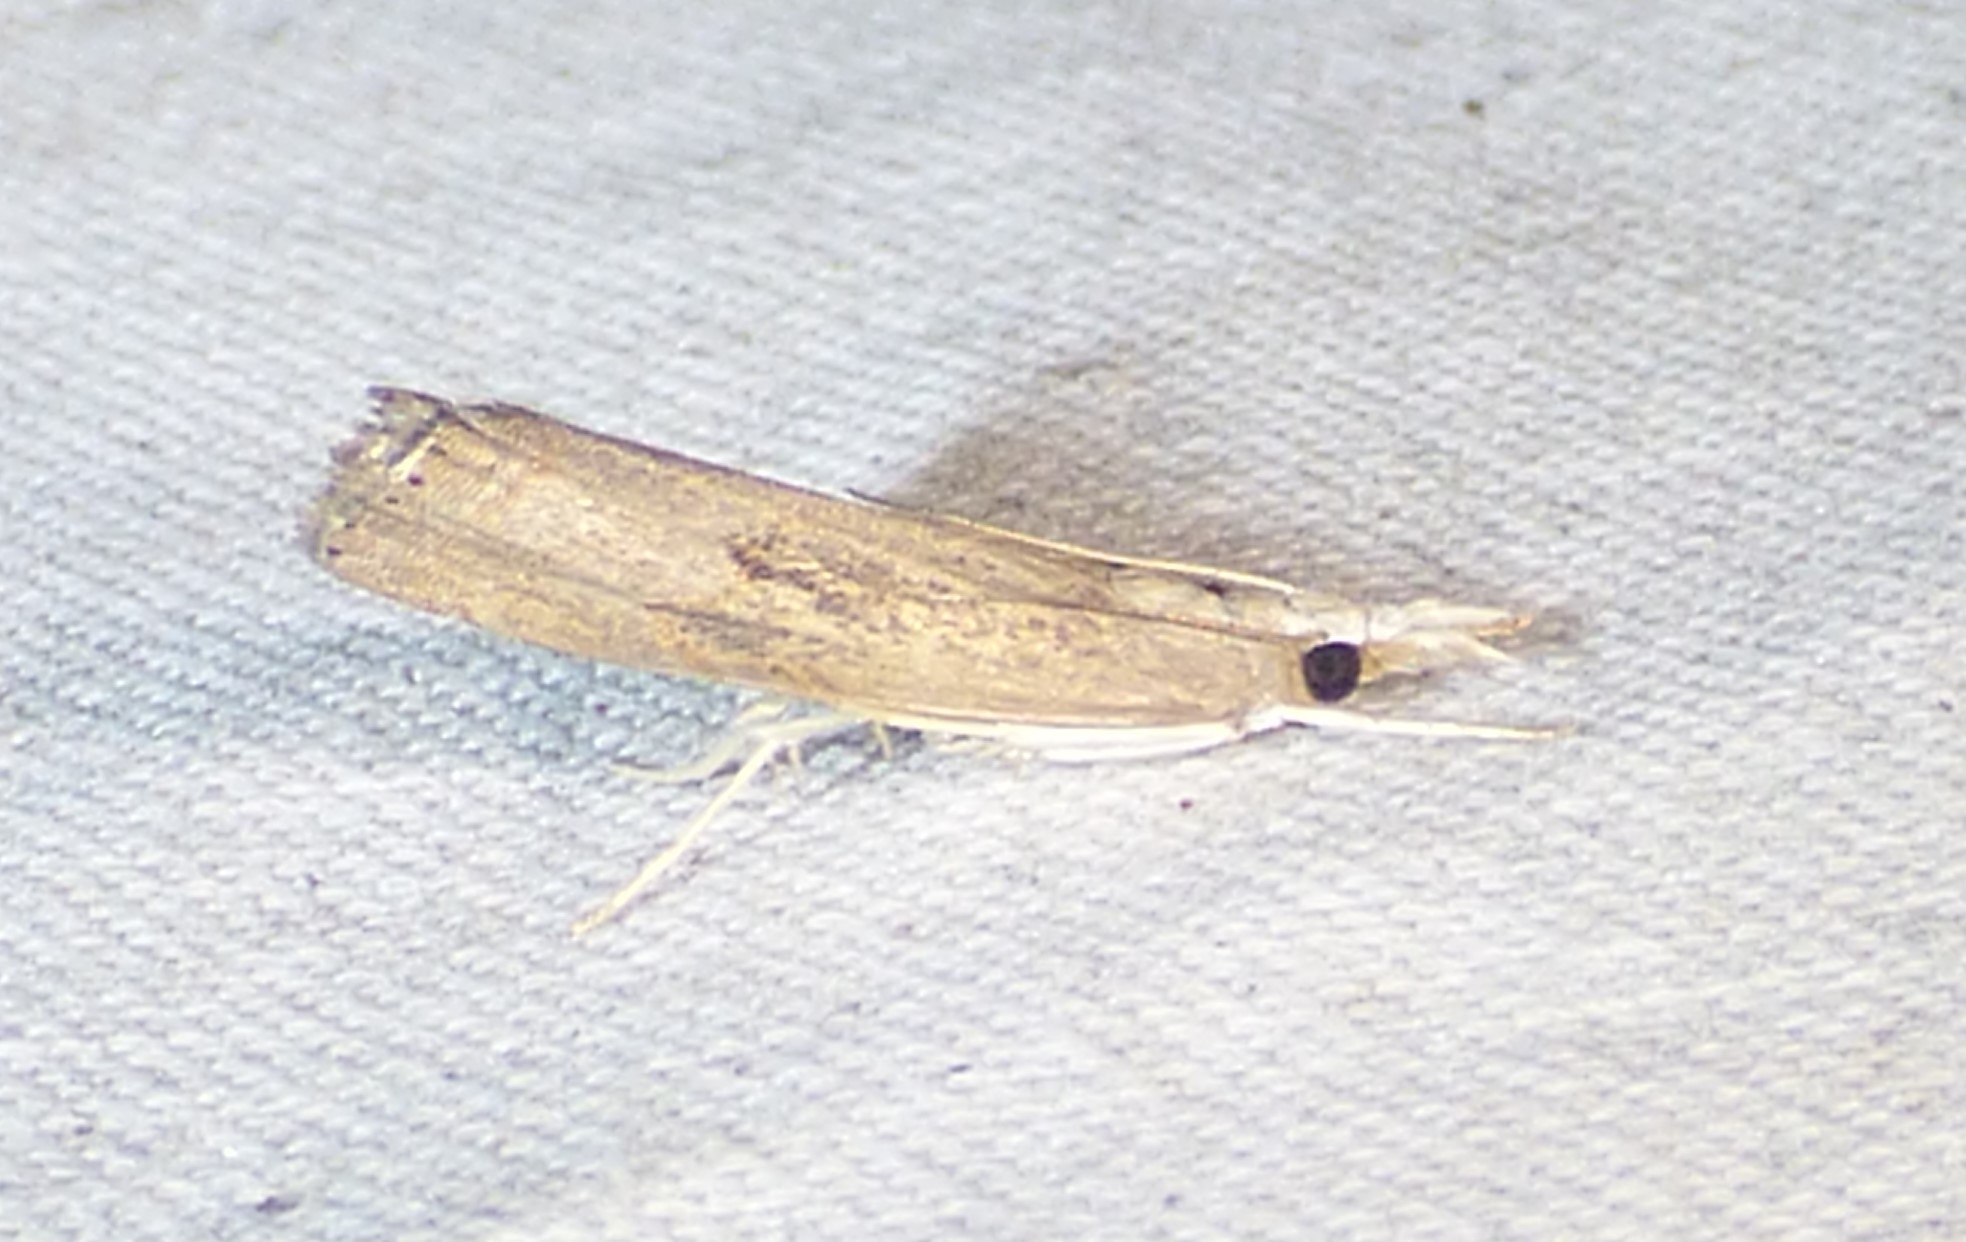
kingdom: Animalia
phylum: Arthropoda
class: Insecta
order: Lepidoptera
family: Crambidae
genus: Parapediasia
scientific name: Parapediasia teterellus
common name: Bluegrass webworm moth
